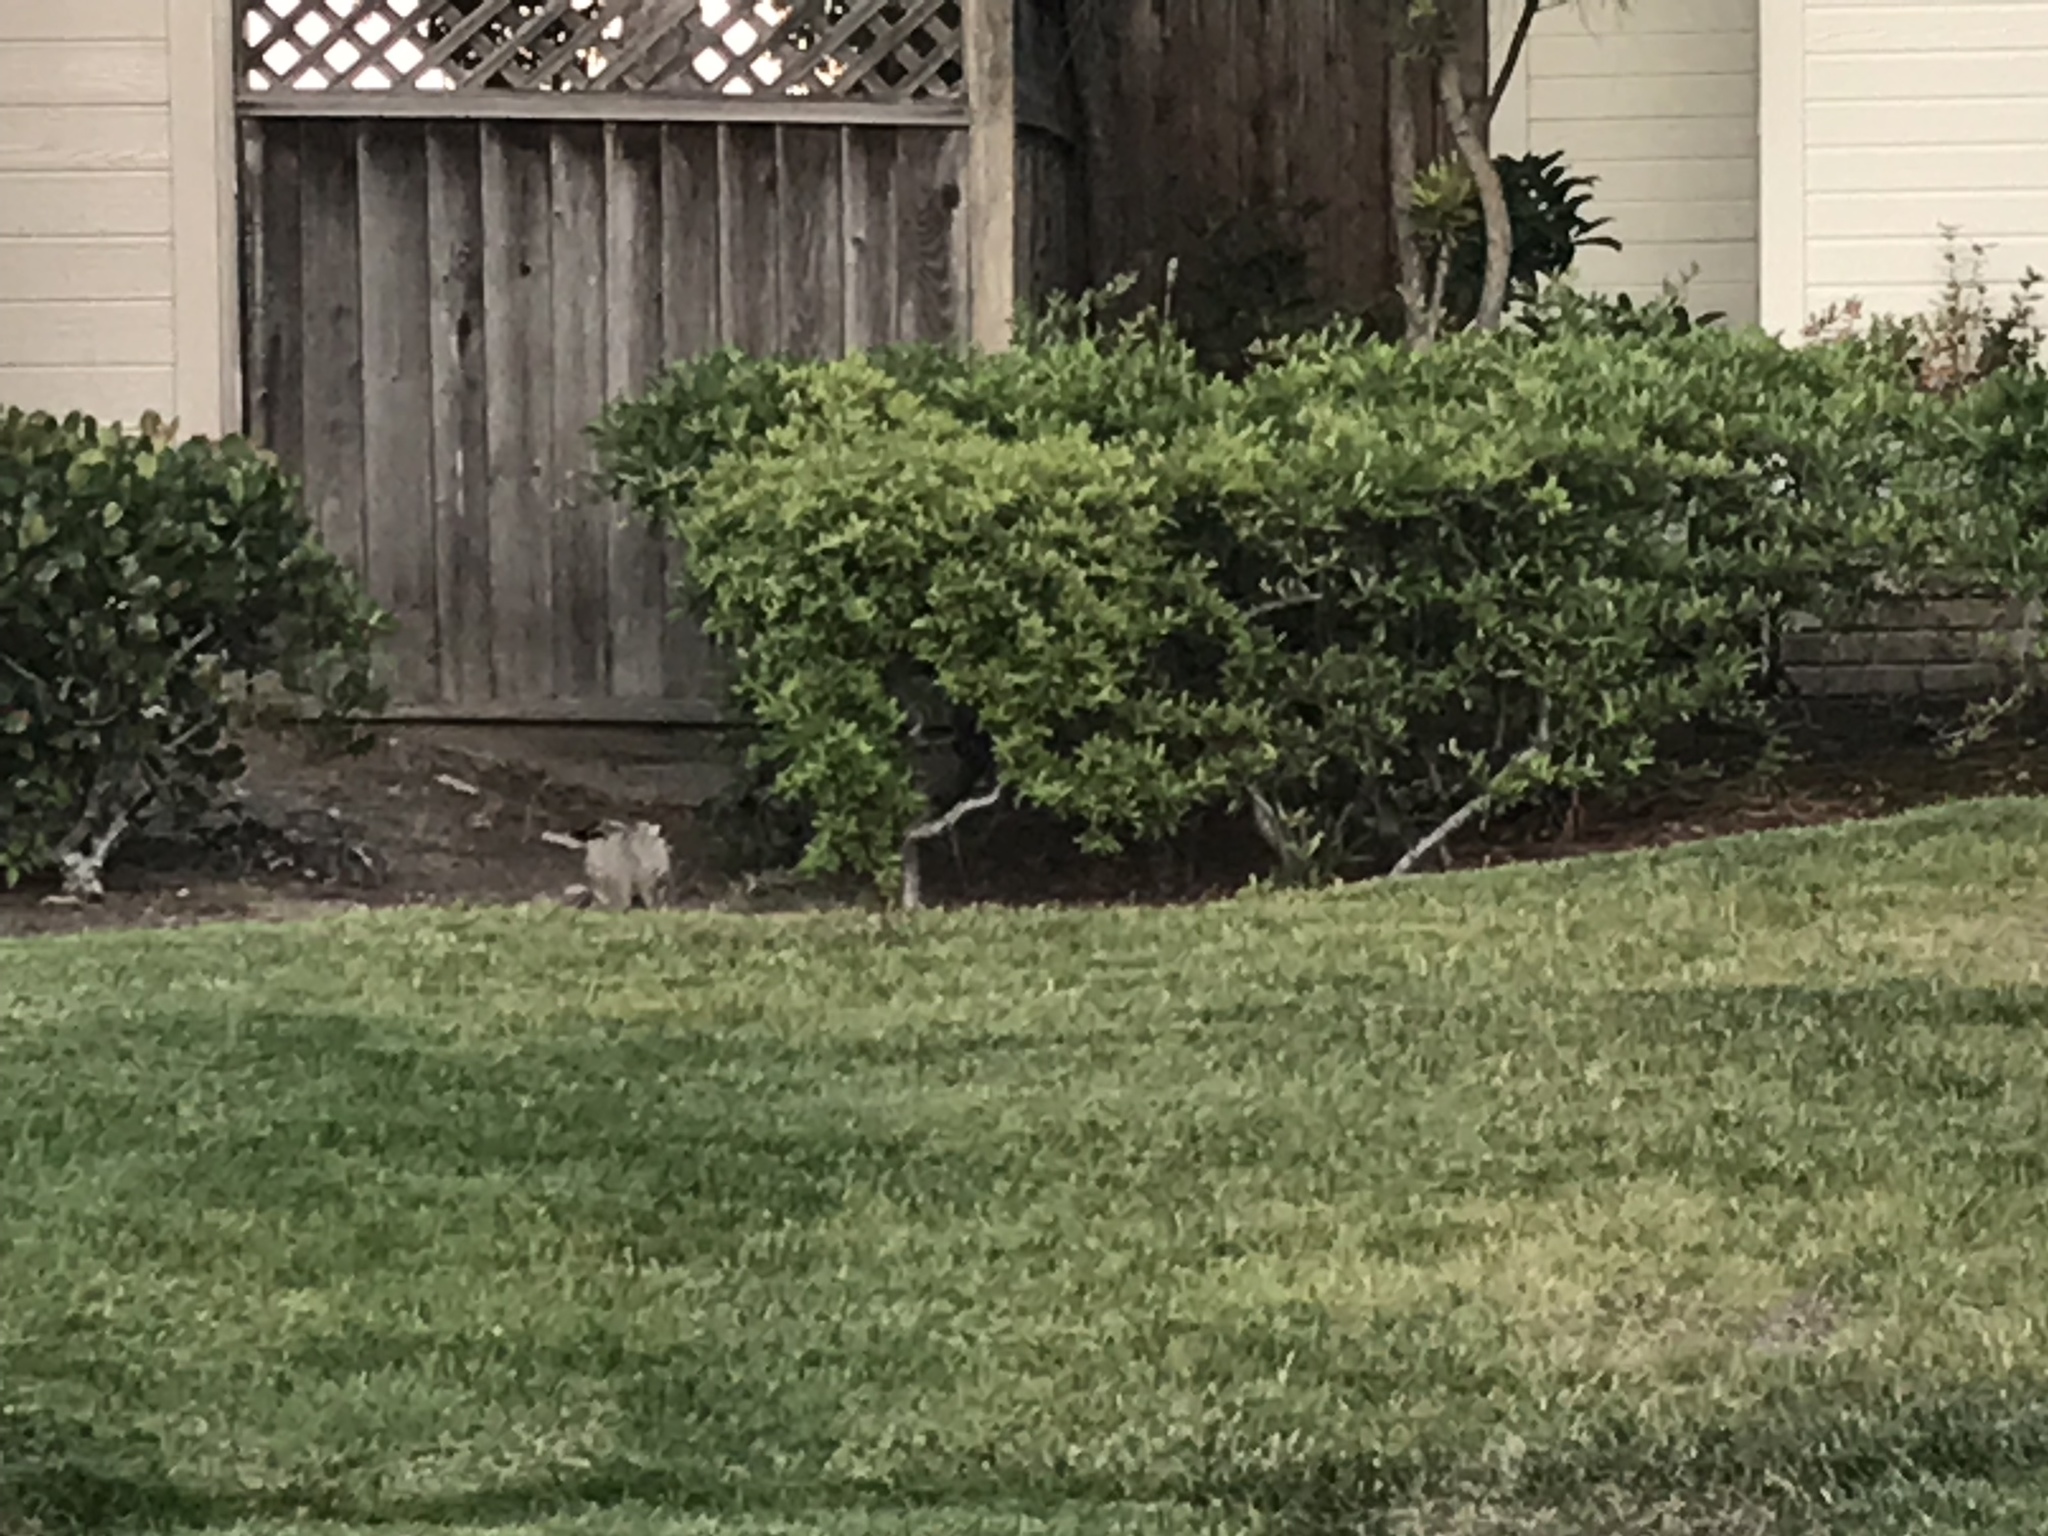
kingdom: Animalia
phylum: Chordata
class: Mammalia
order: Lagomorpha
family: Leporidae
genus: Lepus
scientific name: Lepus californicus
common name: Black-tailed jackrabbit
